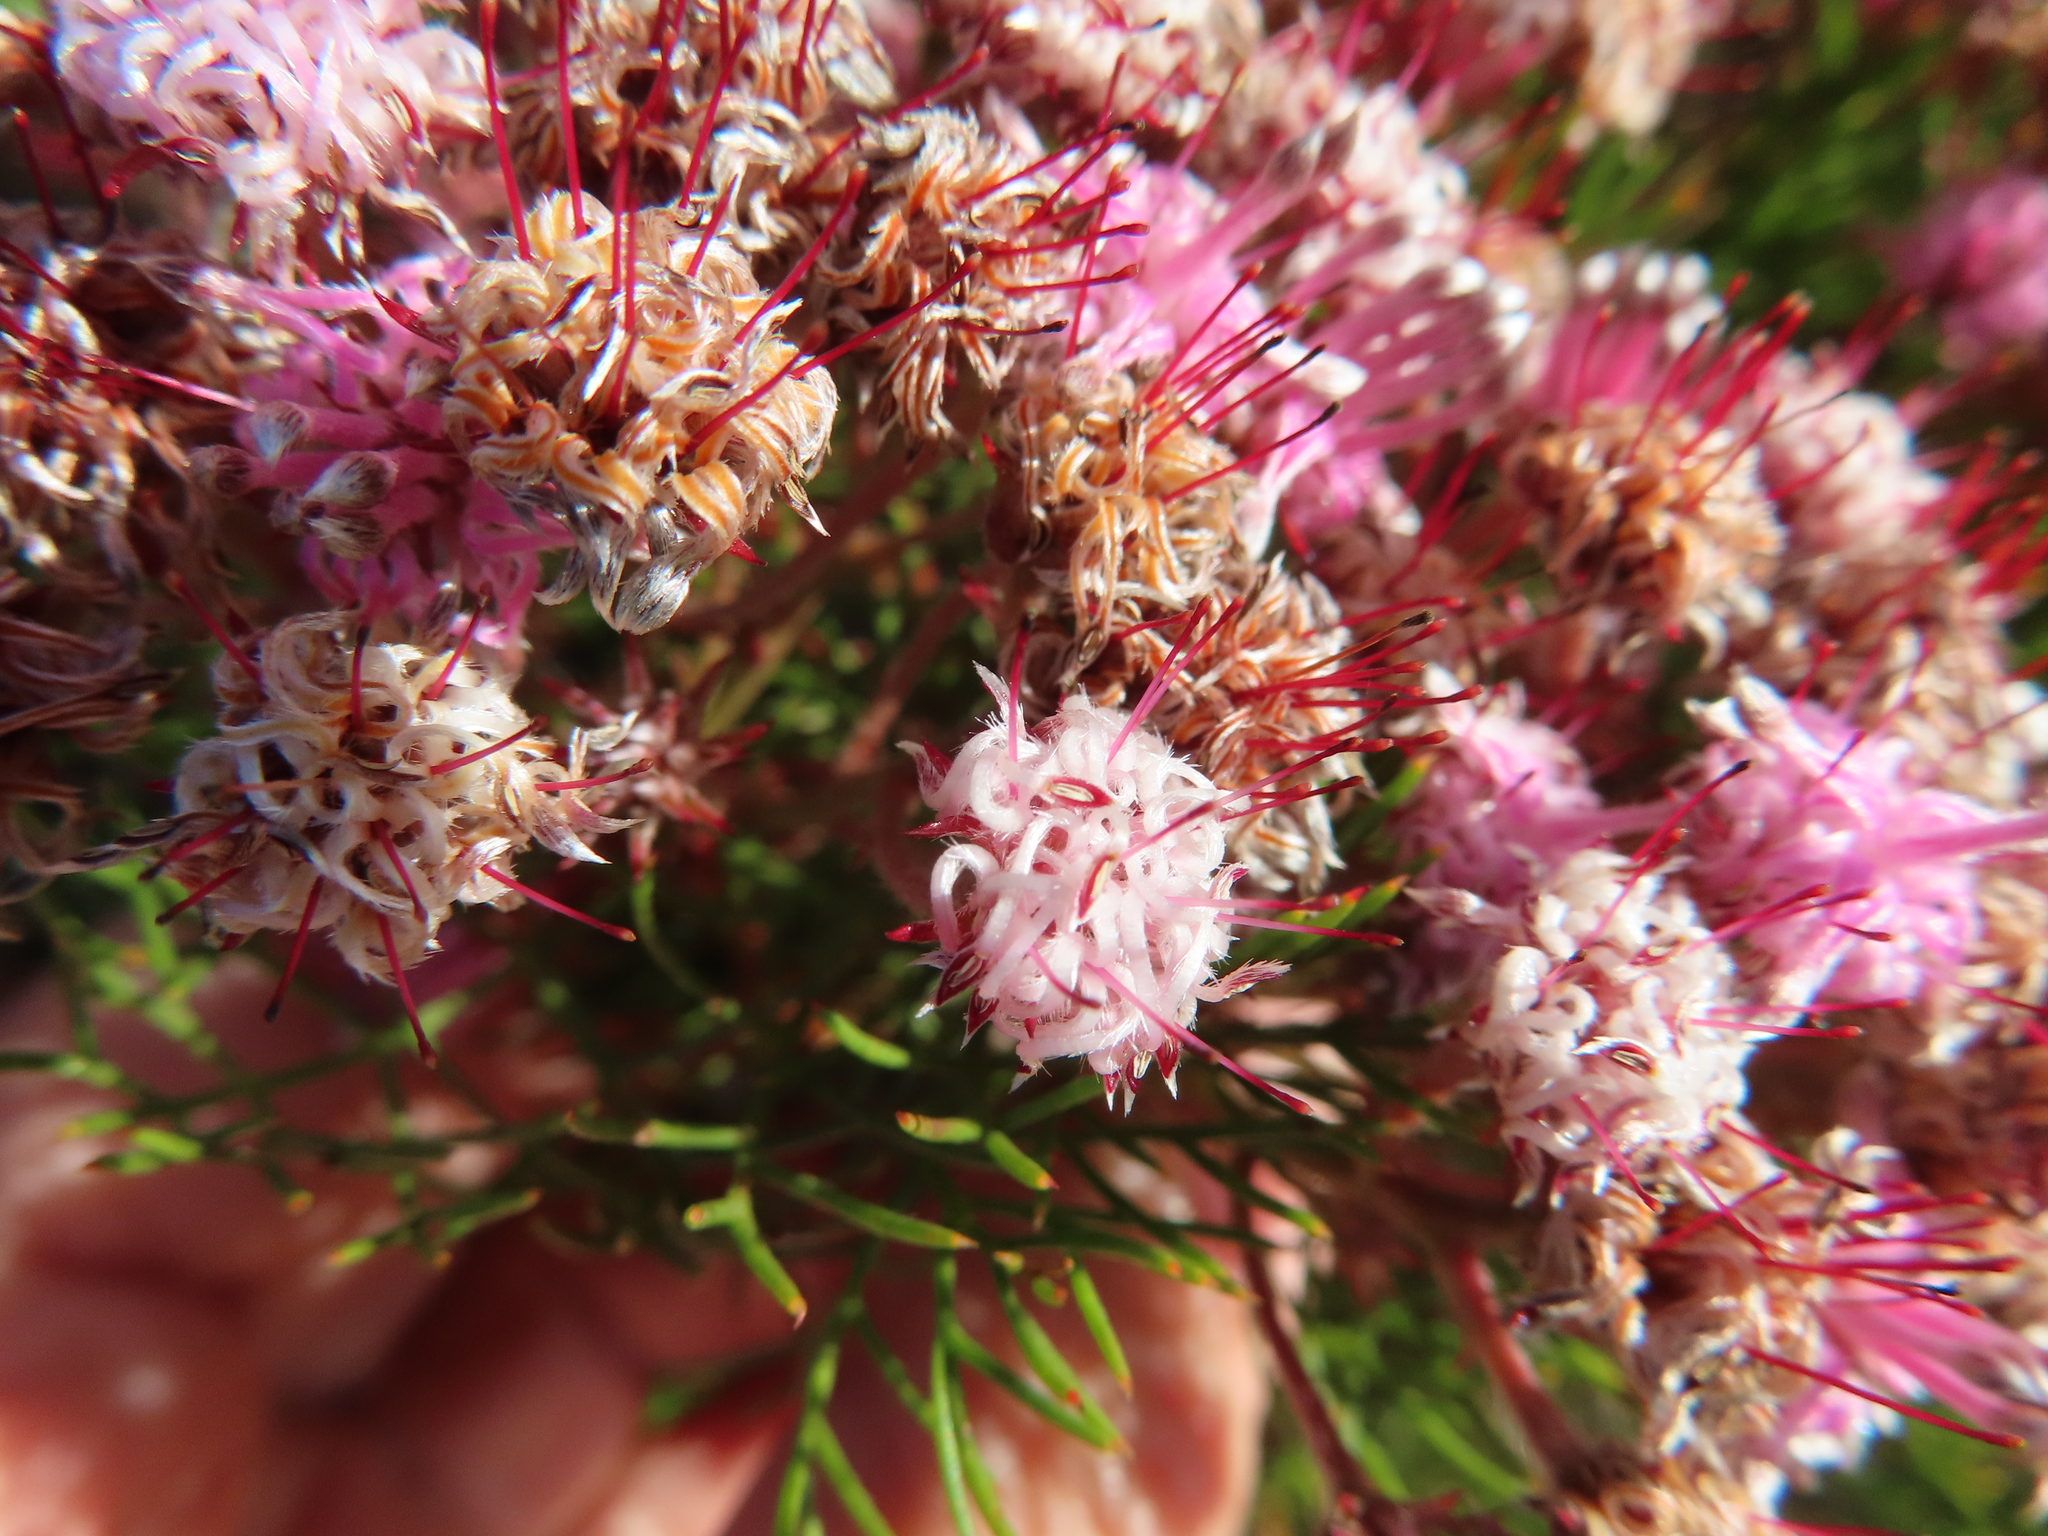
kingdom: Plantae
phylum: Tracheophyta
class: Magnoliopsida
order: Proteales
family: Proteaceae
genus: Serruria
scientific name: Serruria fasciflora
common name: Common pin spiderhead
